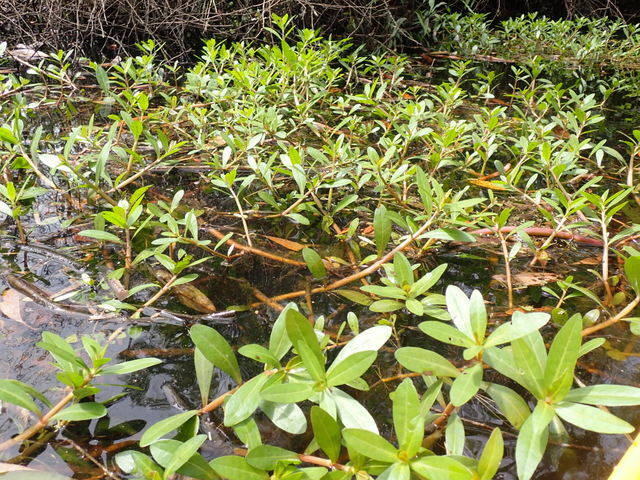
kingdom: Plantae
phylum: Tracheophyta
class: Magnoliopsida
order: Caryophyllales
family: Amaranthaceae
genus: Alternanthera
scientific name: Alternanthera philoxeroides
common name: Alligatorweed
